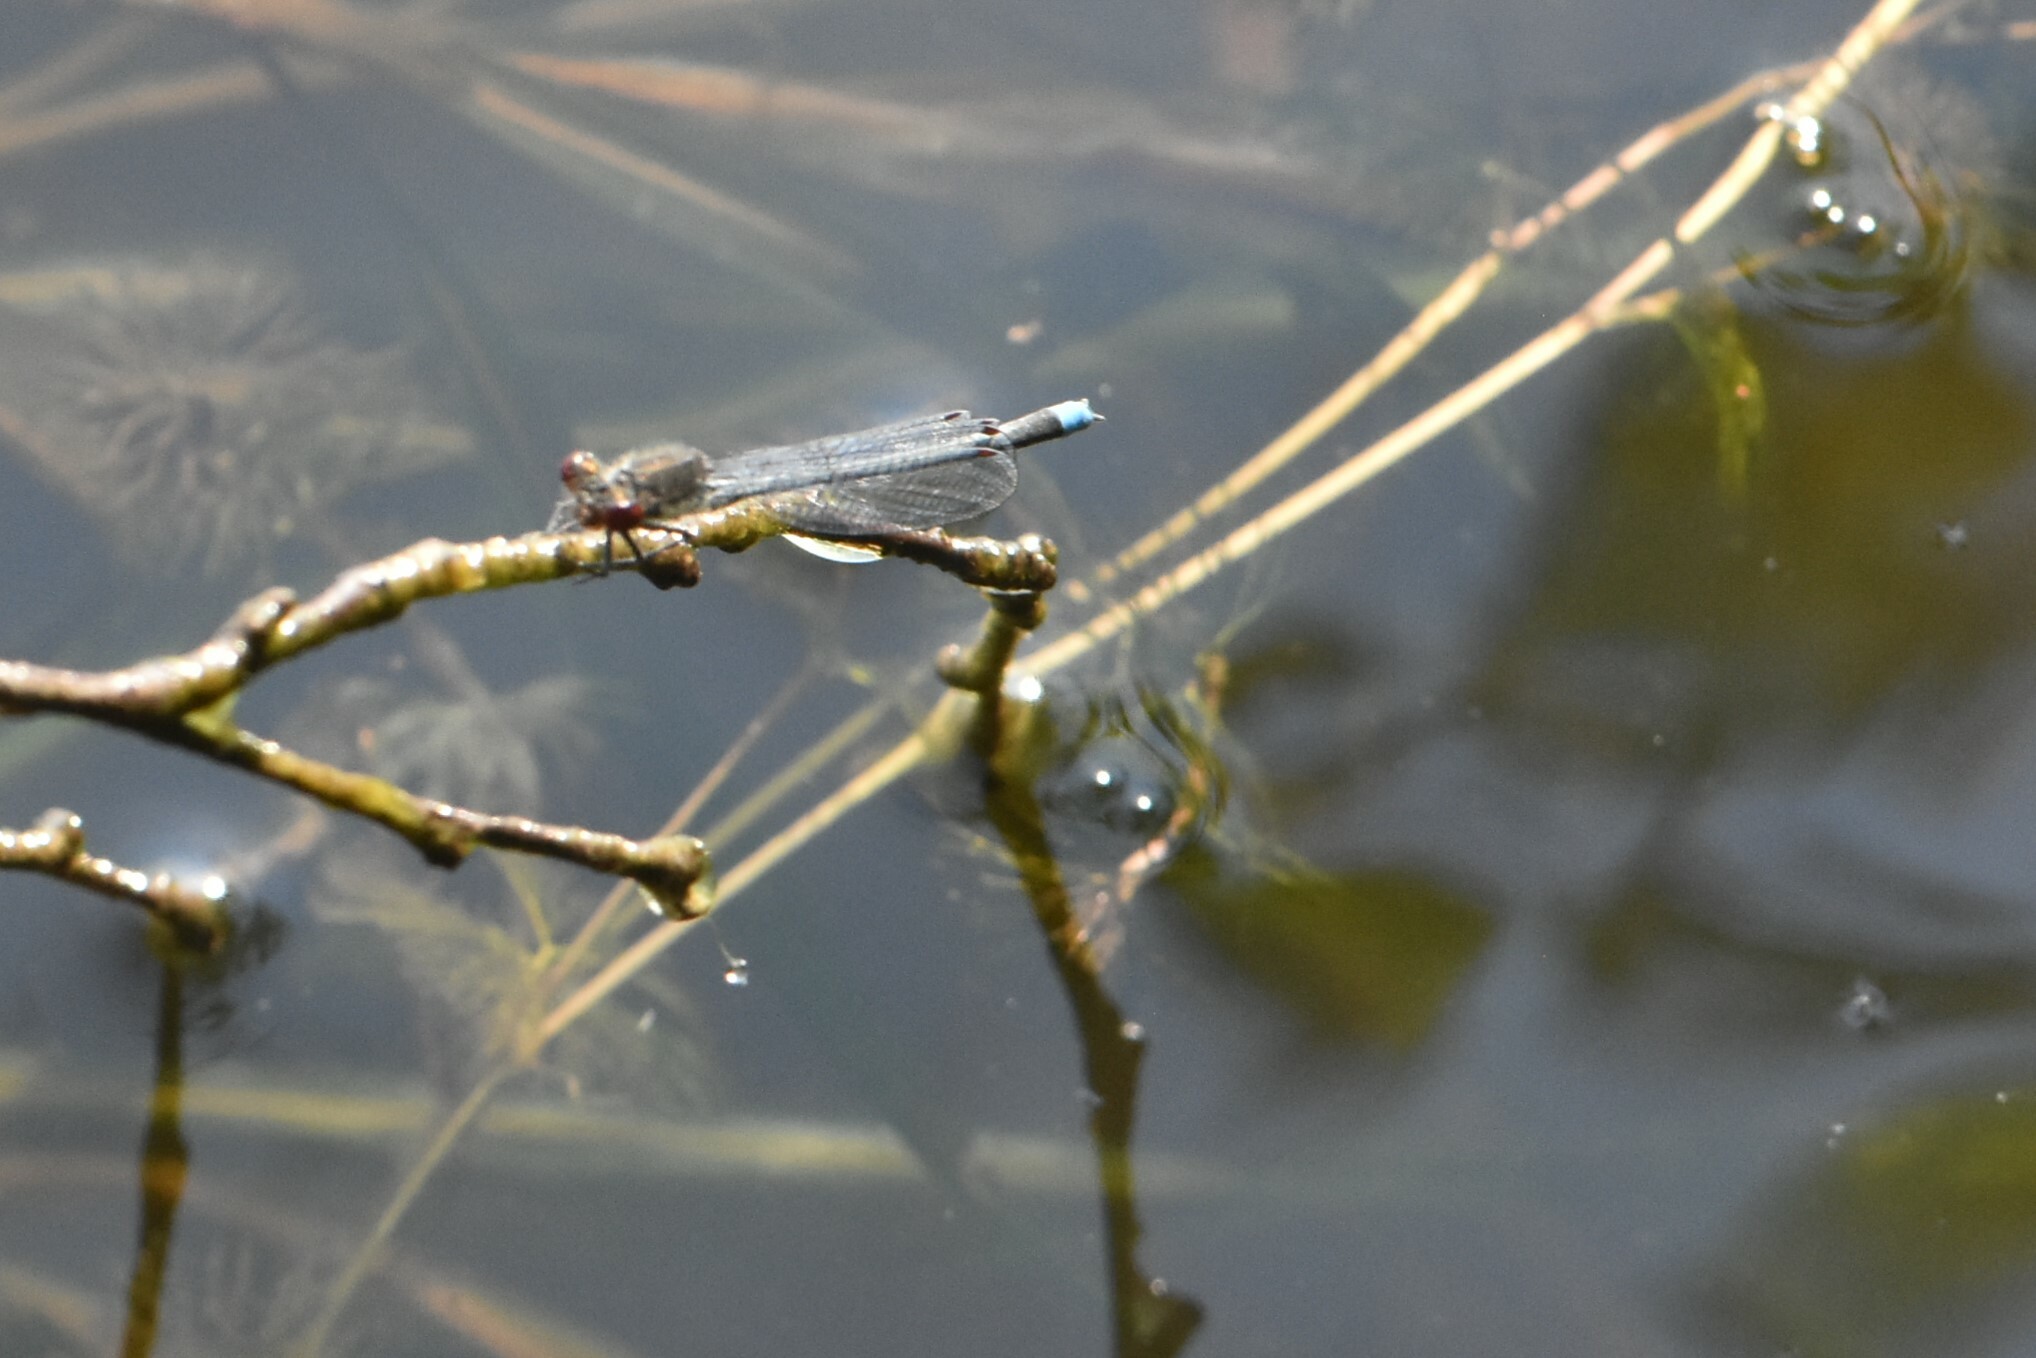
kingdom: Animalia
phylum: Arthropoda
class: Insecta
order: Odonata
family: Coenagrionidae
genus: Erythromma
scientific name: Erythromma najas
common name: Red-eyed damselfly
